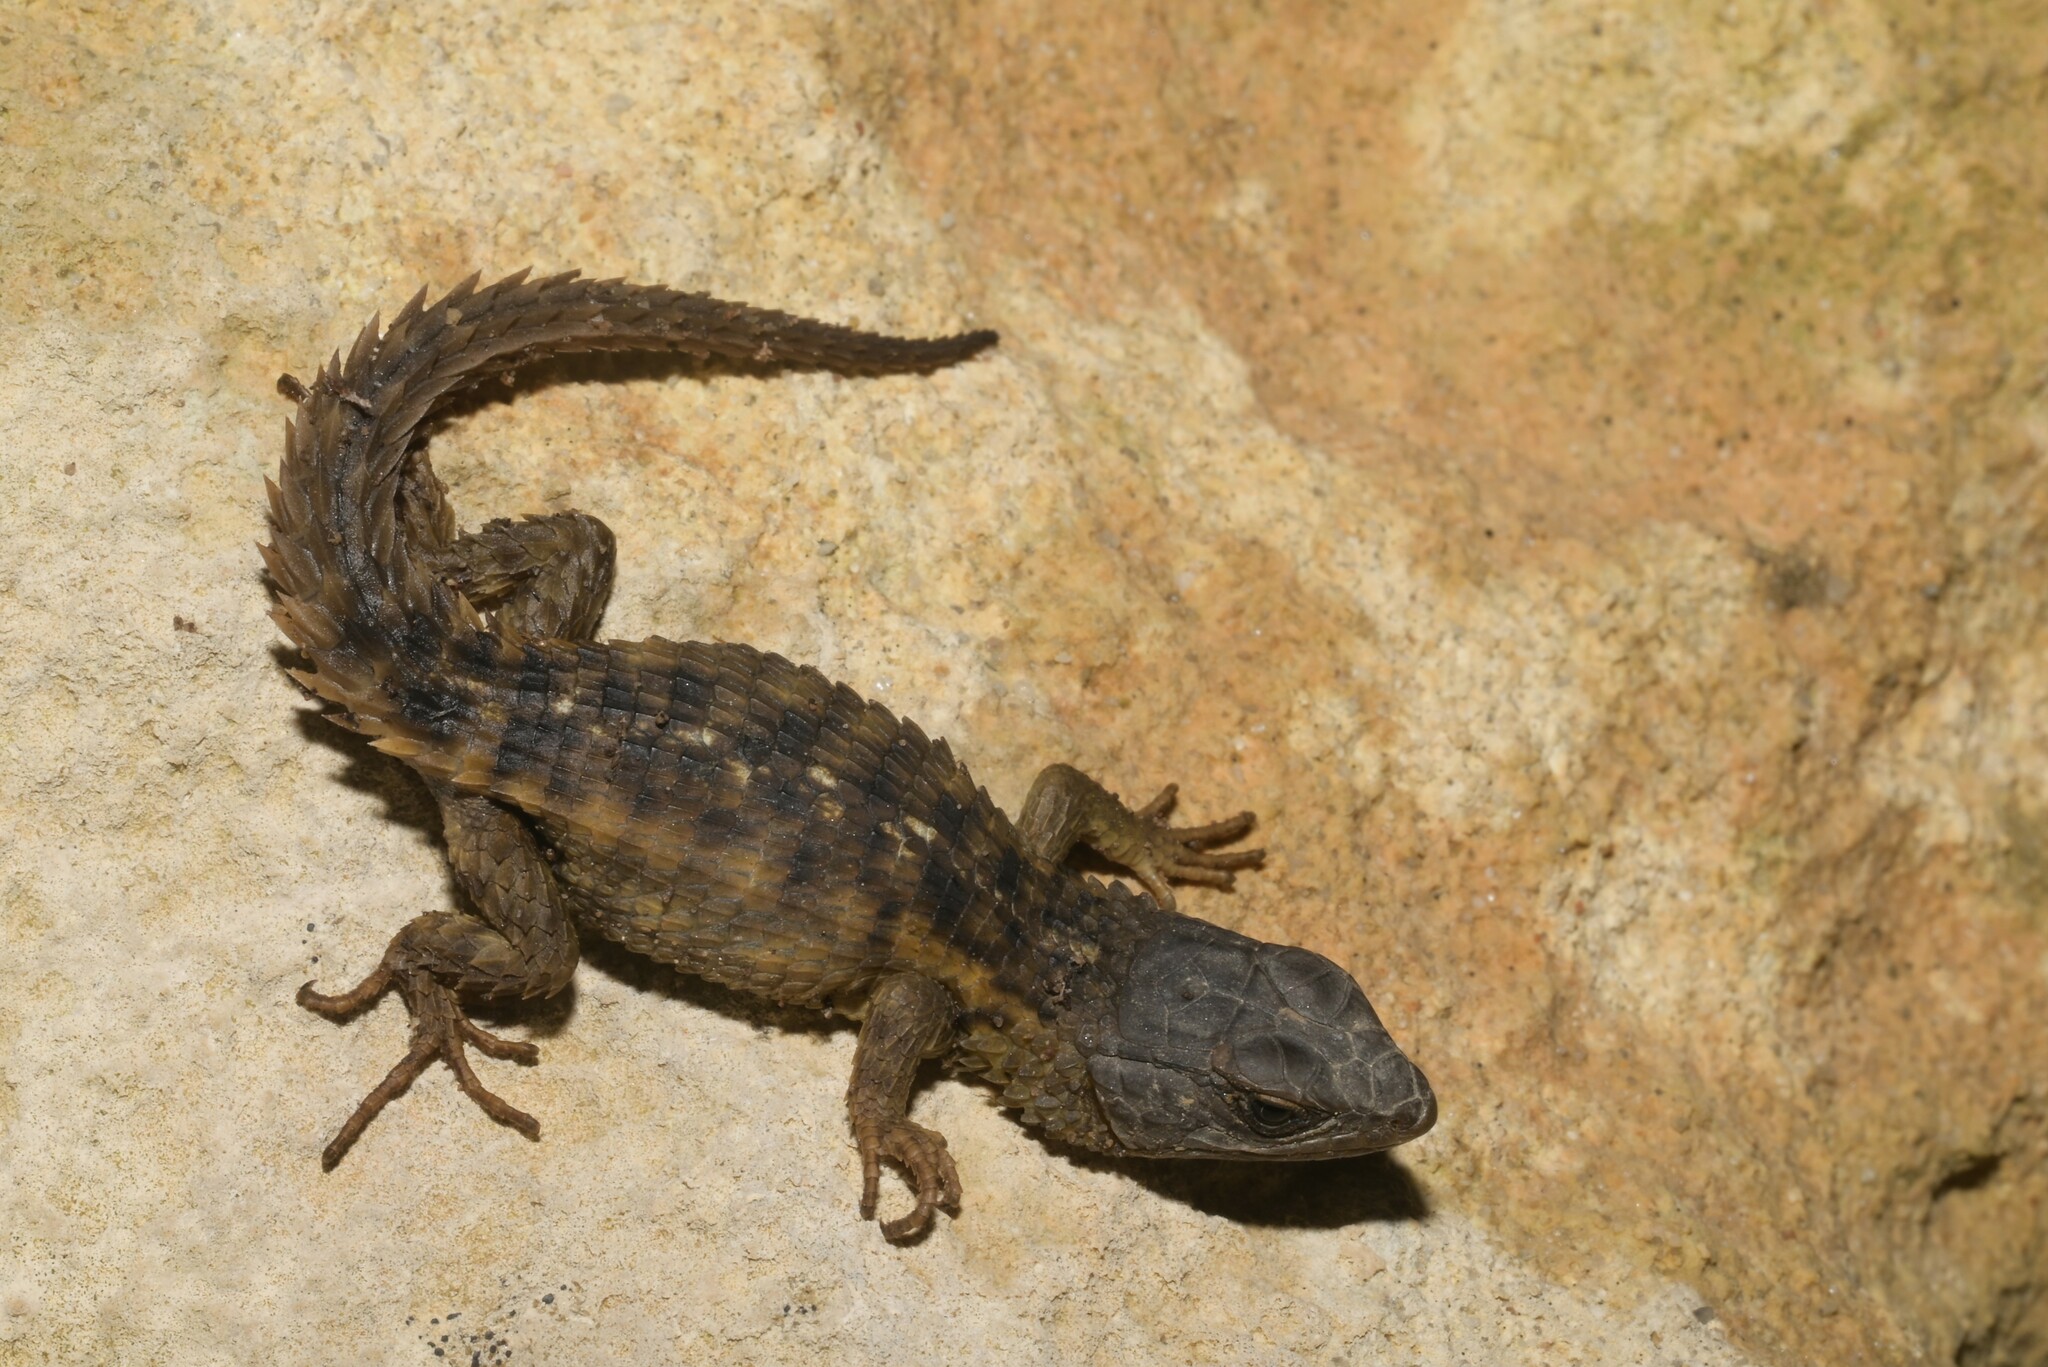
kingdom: Animalia
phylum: Chordata
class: Squamata
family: Cordylidae
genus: Cordylus
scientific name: Cordylus cordylus
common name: Cape girdled lizard
